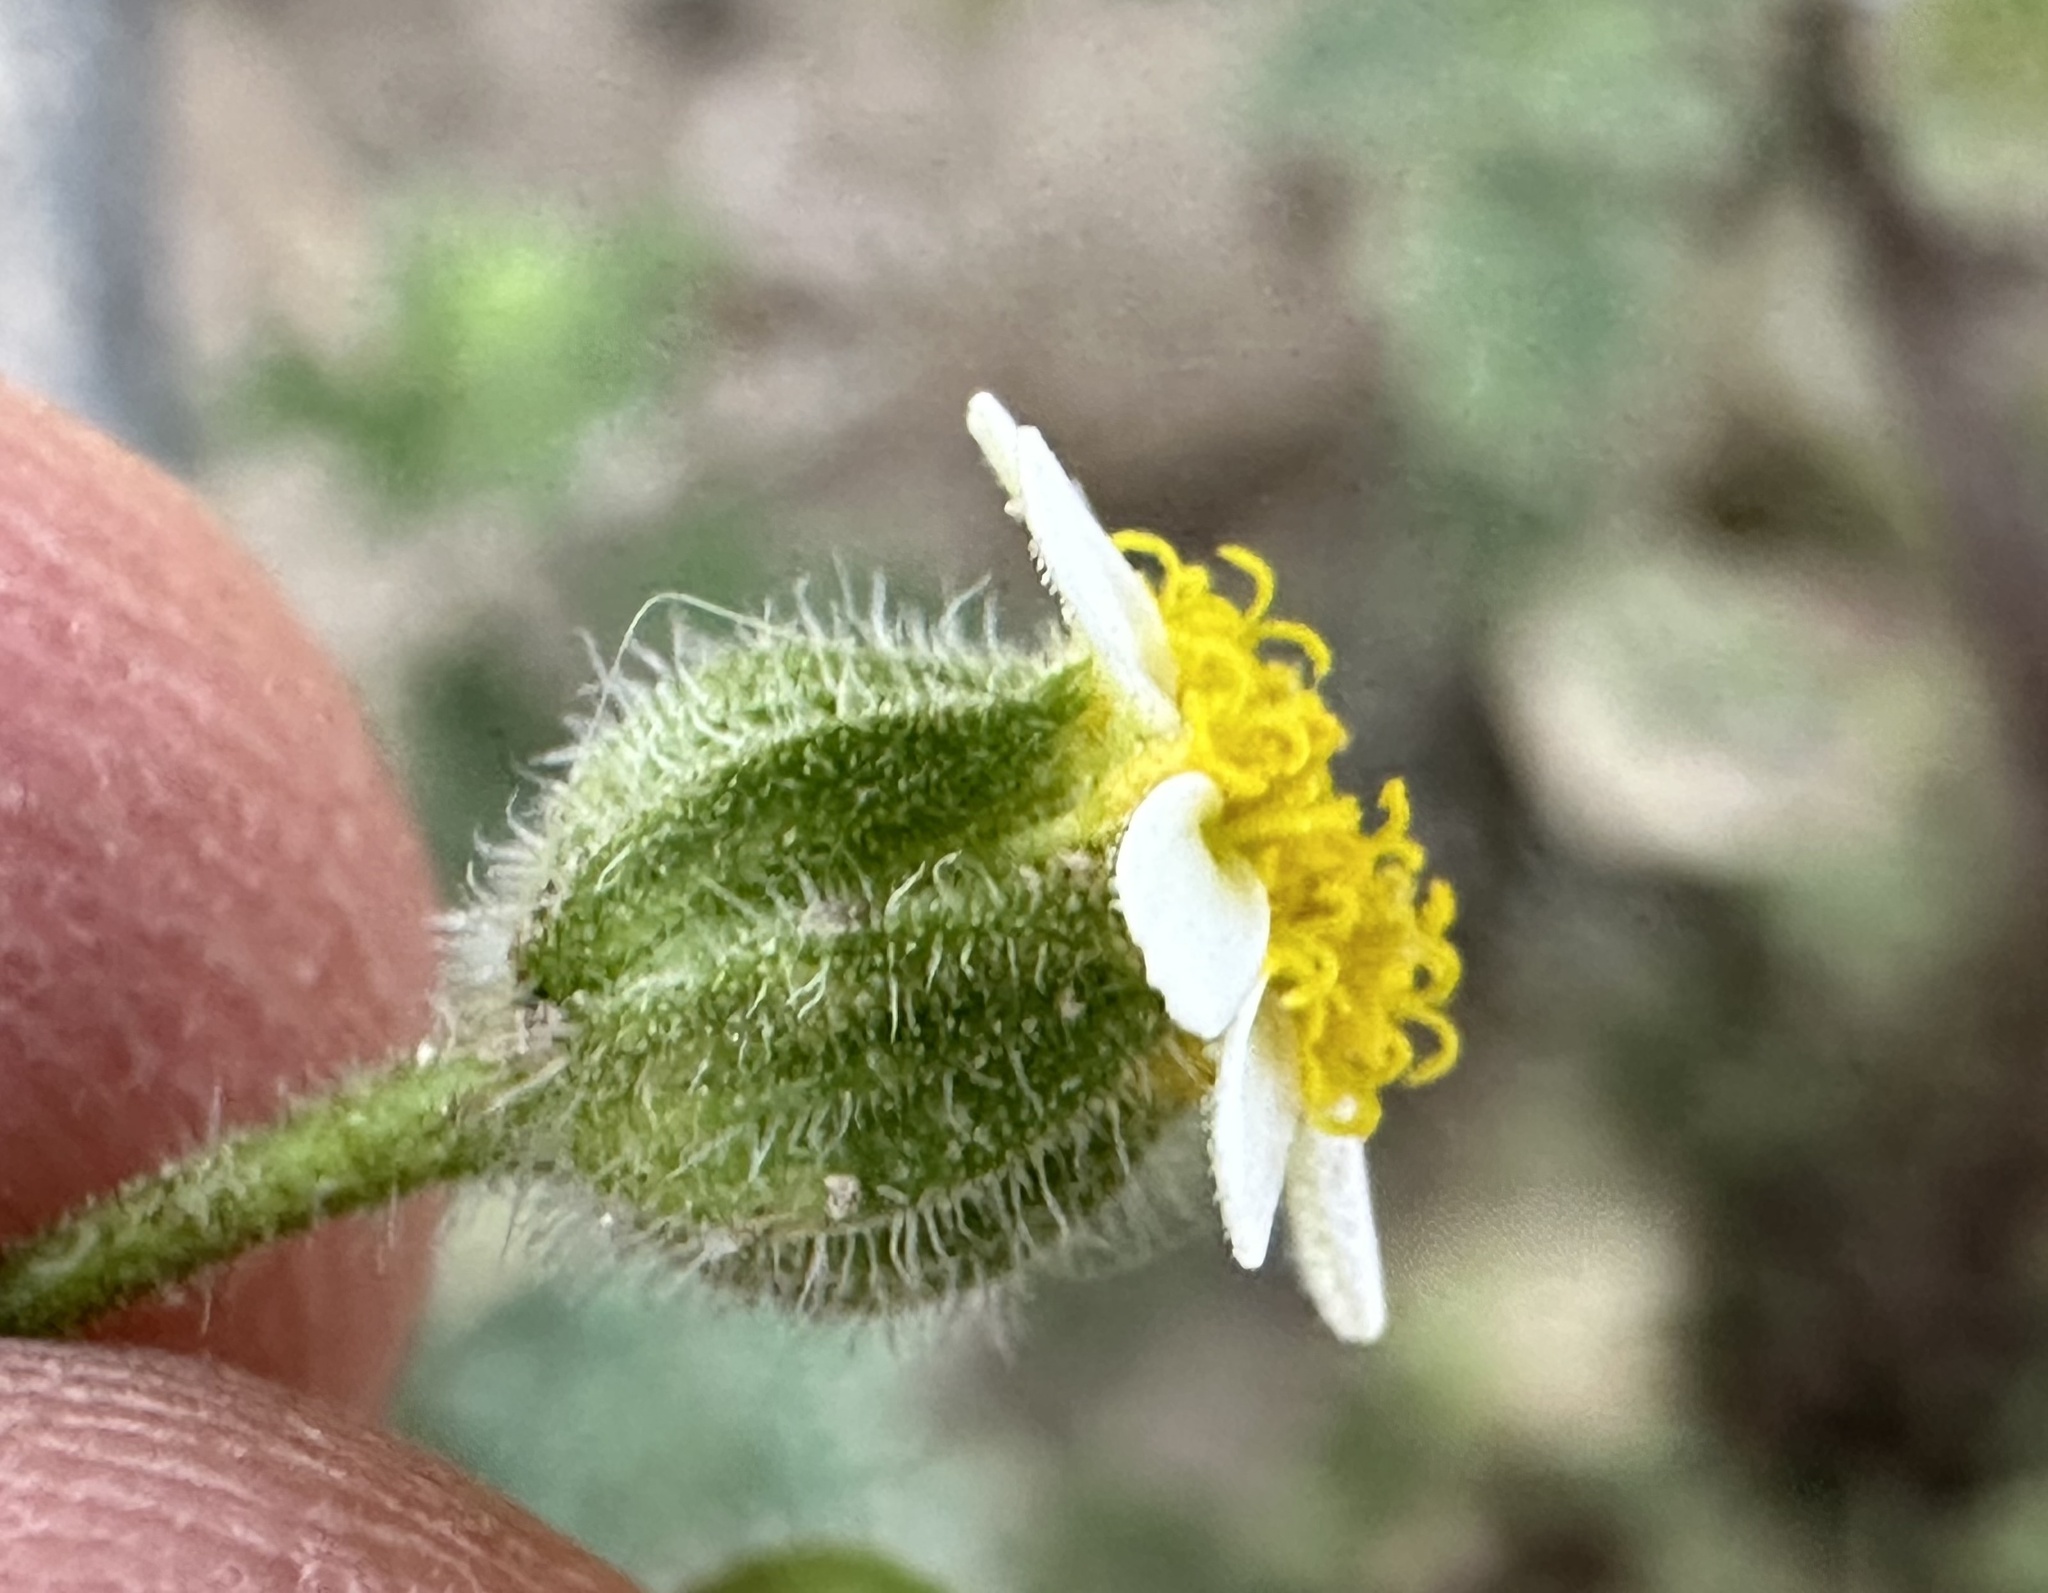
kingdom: Plantae
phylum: Tracheophyta
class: Magnoliopsida
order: Asterales
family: Asteraceae
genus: Laphamia
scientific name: Laphamia emoryi
